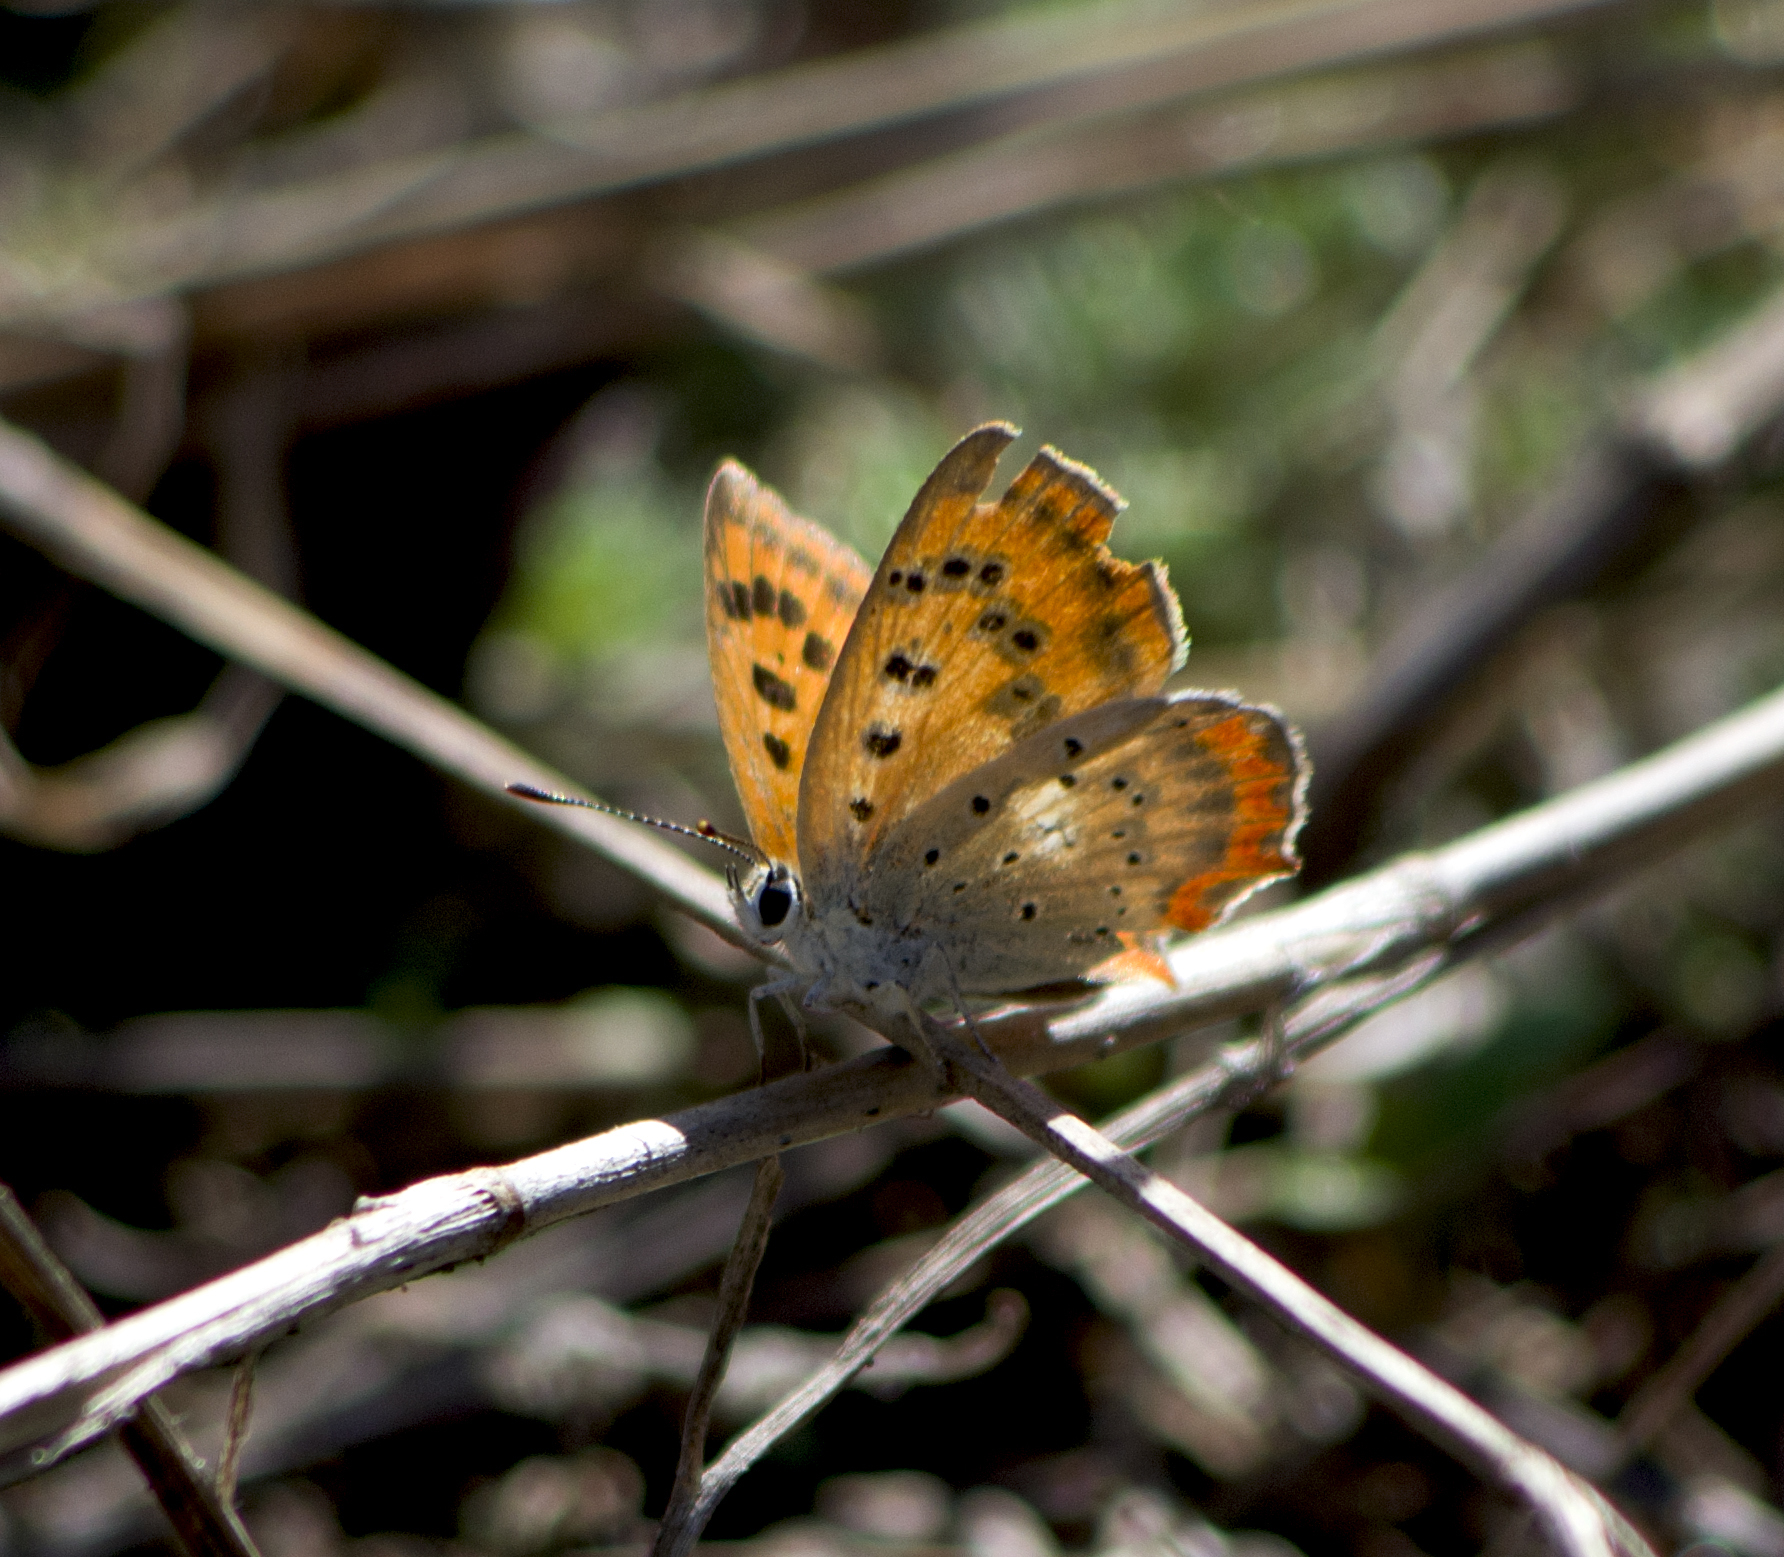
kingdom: Animalia
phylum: Arthropoda
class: Insecta
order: Lepidoptera
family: Lycaenidae
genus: Polyommatus
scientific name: Polyommatus ottomanus
